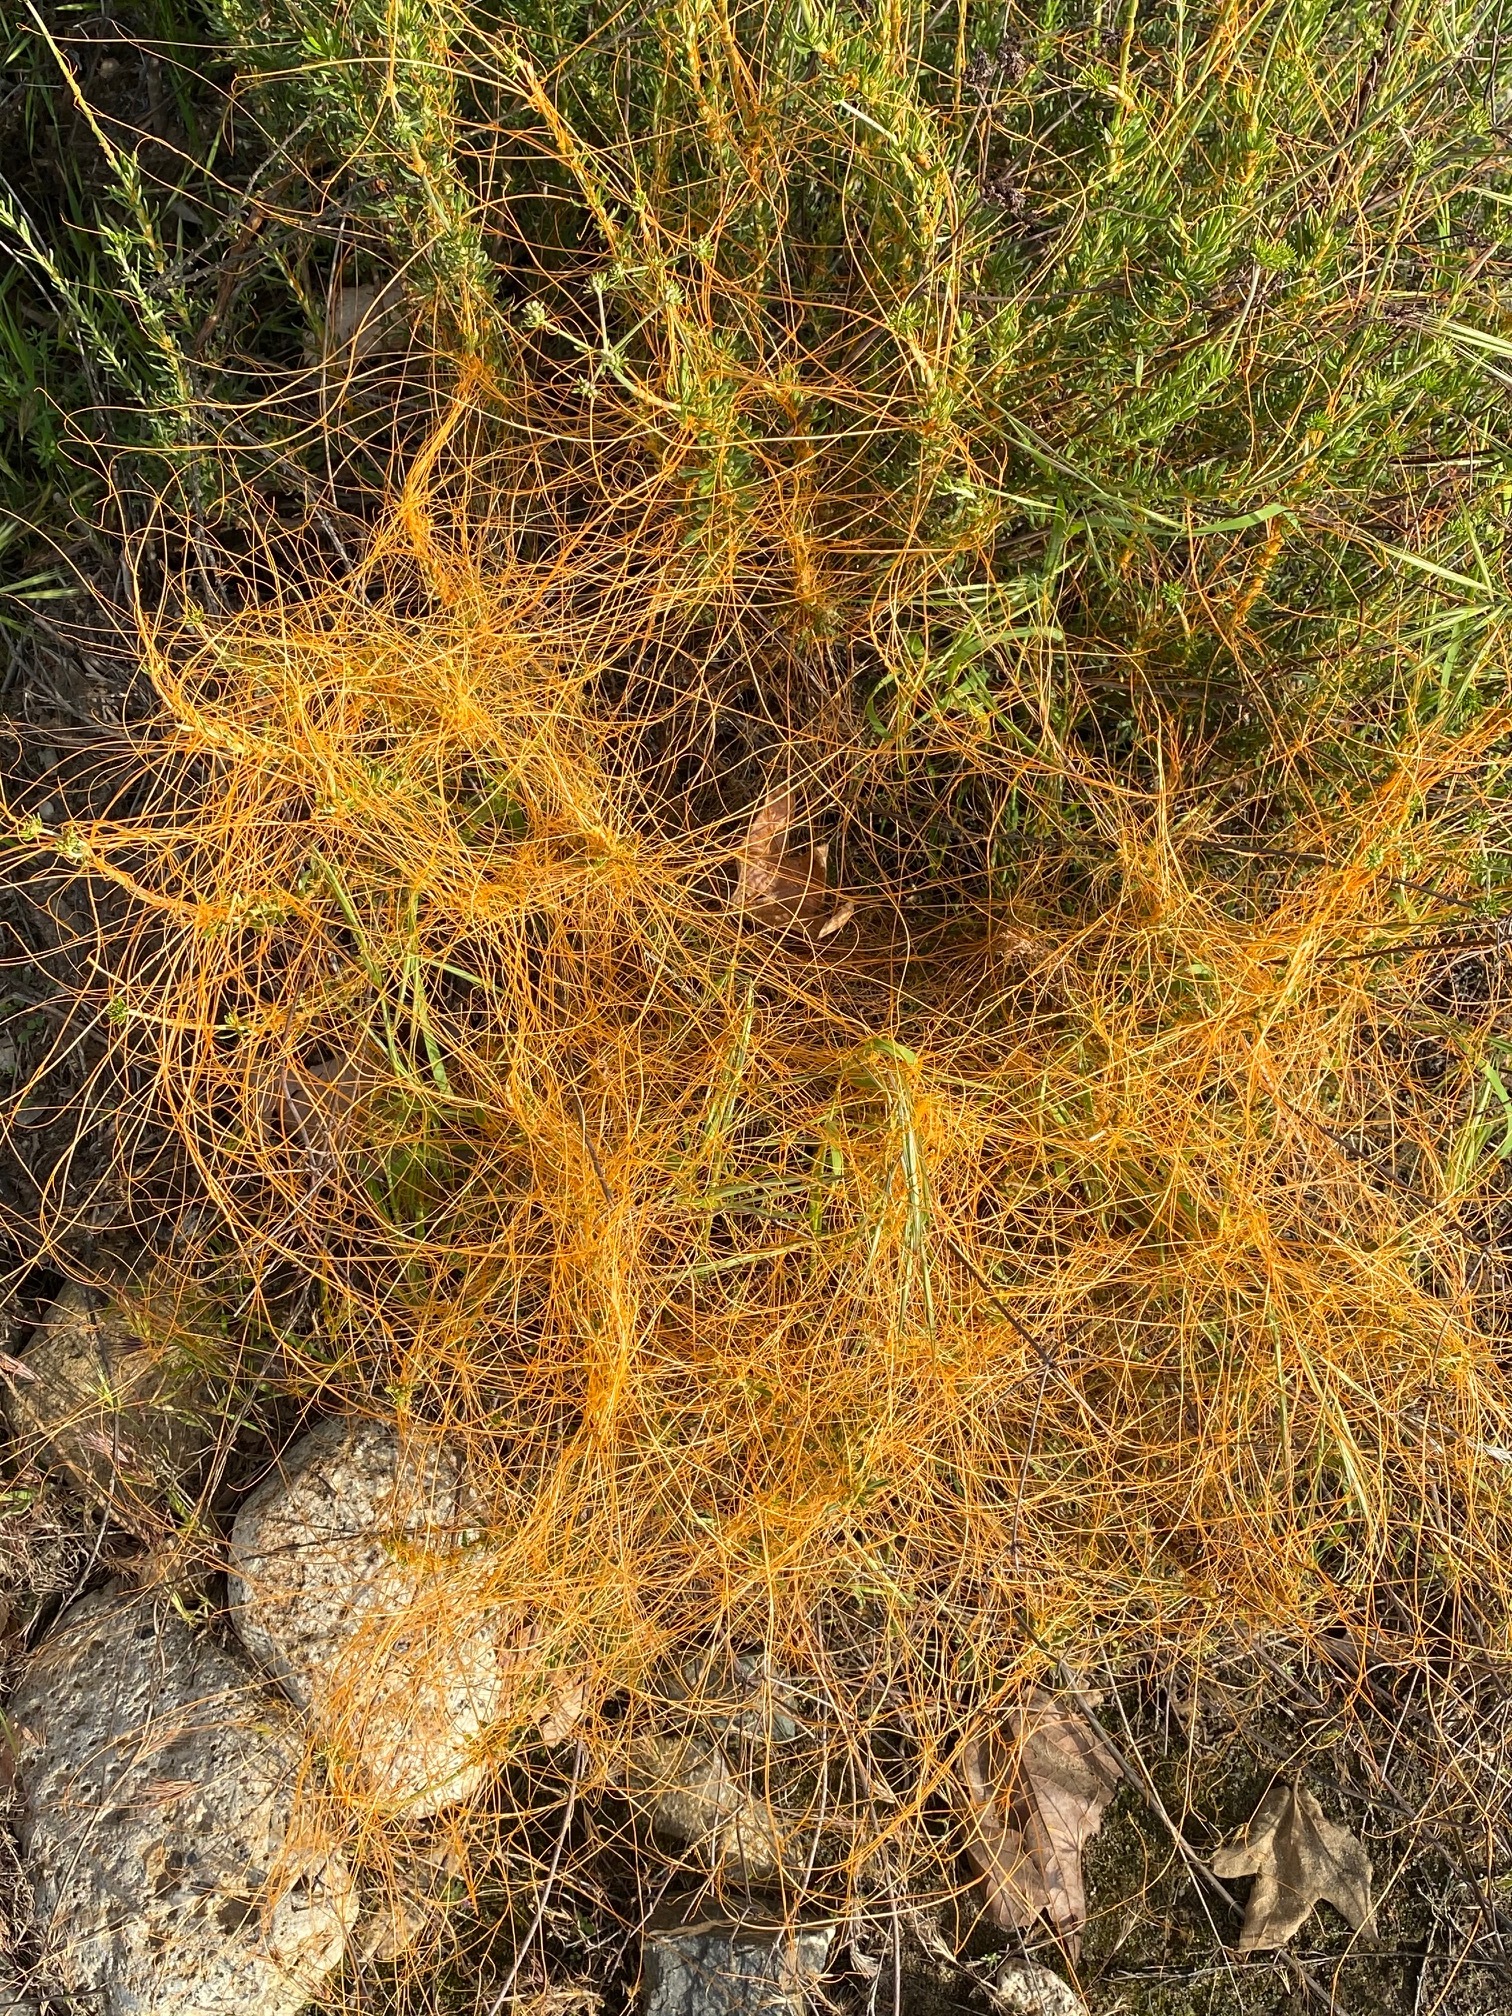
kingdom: Plantae
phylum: Tracheophyta
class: Magnoliopsida
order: Solanales
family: Convolvulaceae
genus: Cuscuta
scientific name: Cuscuta californica
